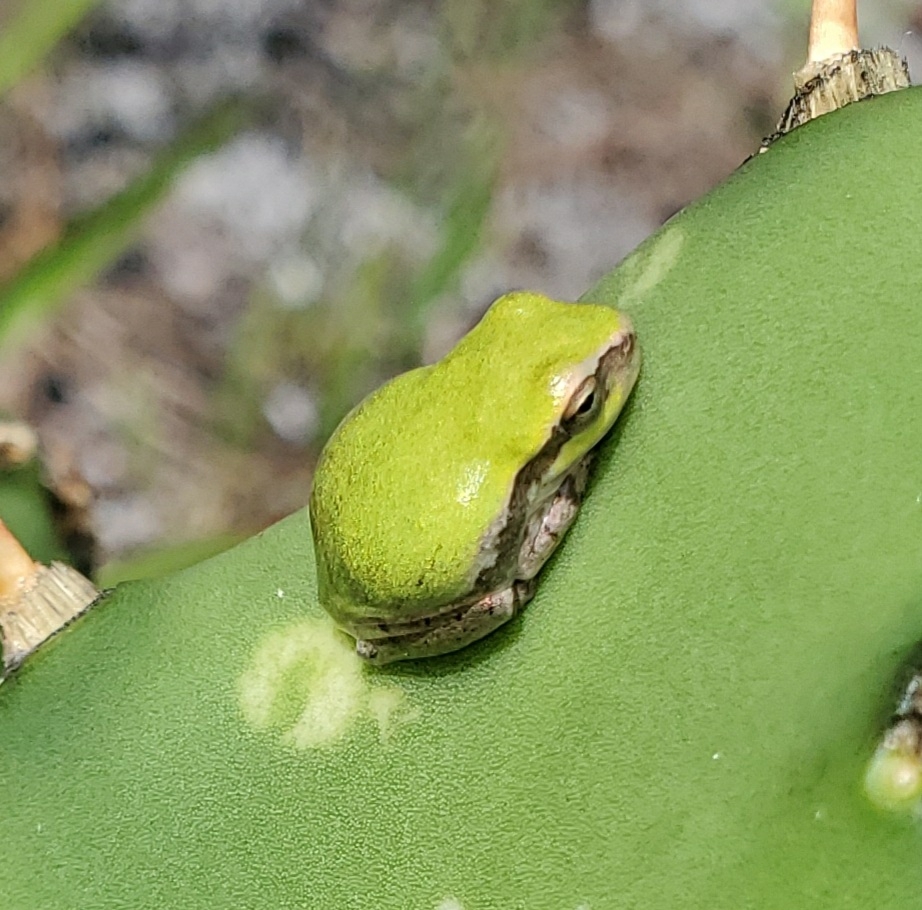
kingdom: Animalia
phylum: Chordata
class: Amphibia
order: Anura
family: Hylidae
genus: Hyla
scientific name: Hyla femoralis
